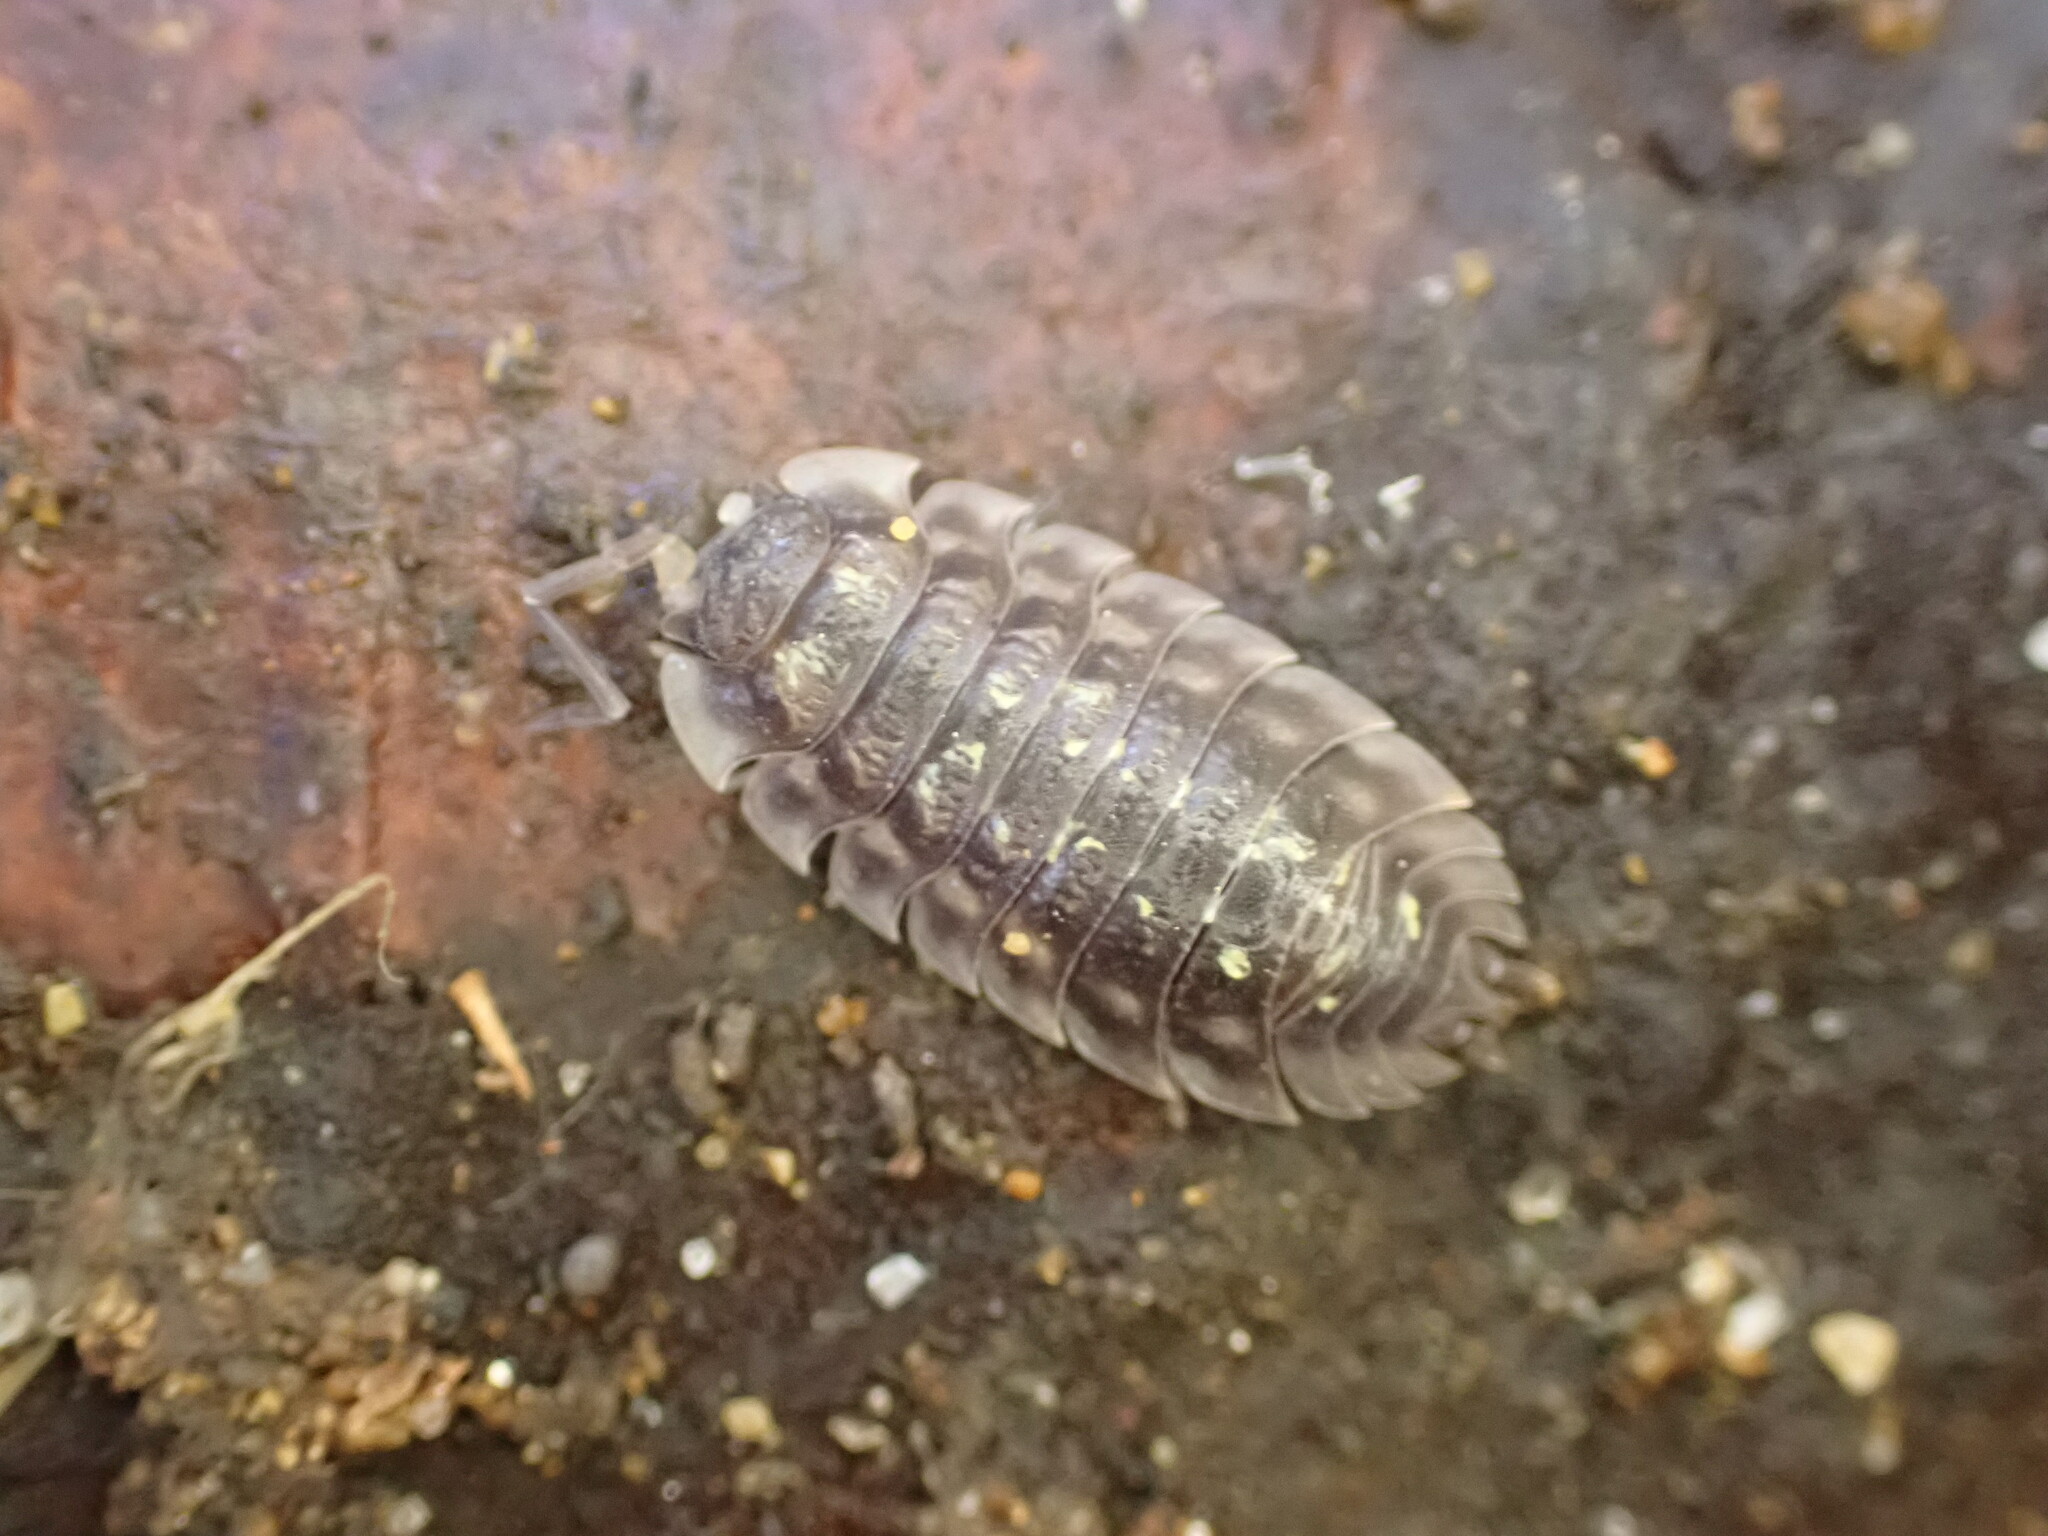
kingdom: Animalia
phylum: Arthropoda
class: Malacostraca
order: Isopoda
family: Oniscidae
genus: Oniscus
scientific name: Oniscus asellus
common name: Common shiny woodlouse
